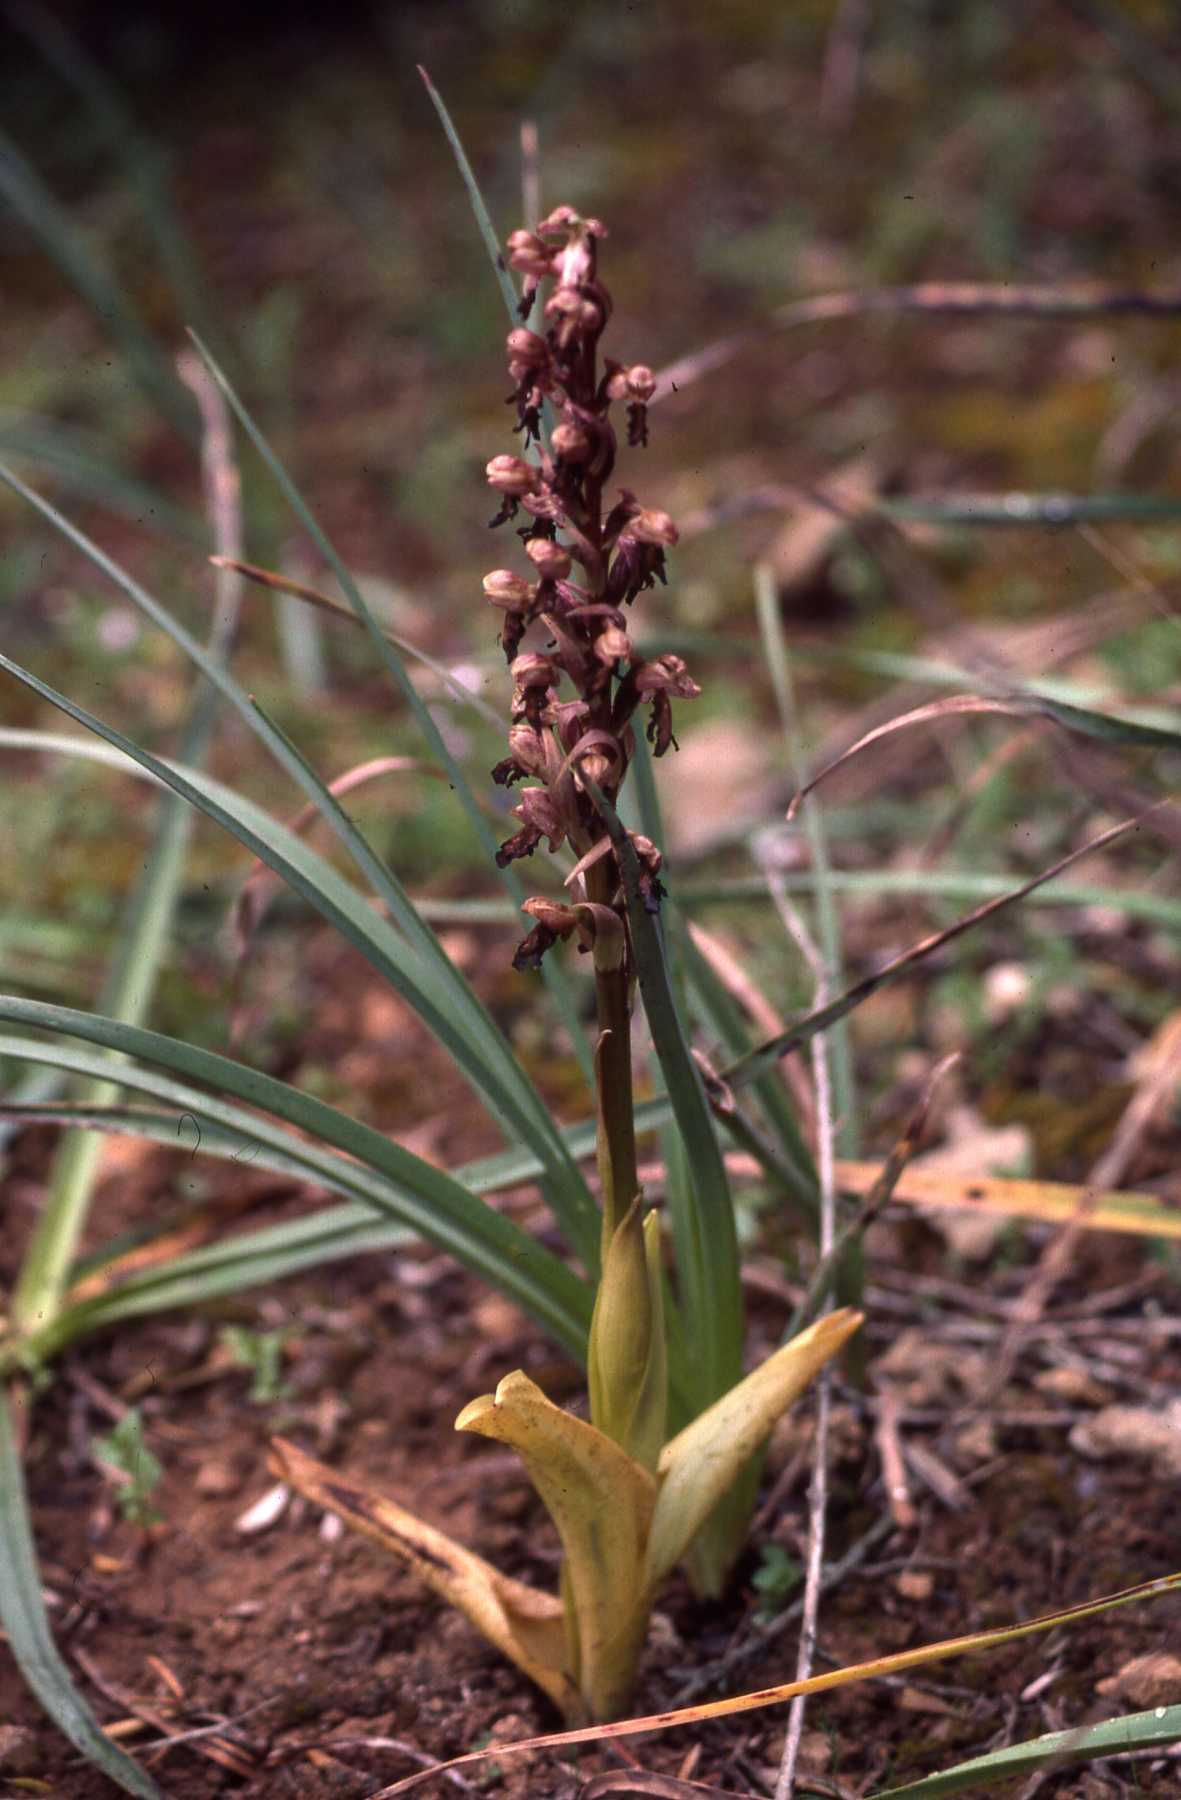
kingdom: Plantae
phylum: Tracheophyta
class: Liliopsida
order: Asparagales
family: Orchidaceae
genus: Himantoglossum
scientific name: Himantoglossum robertianum
